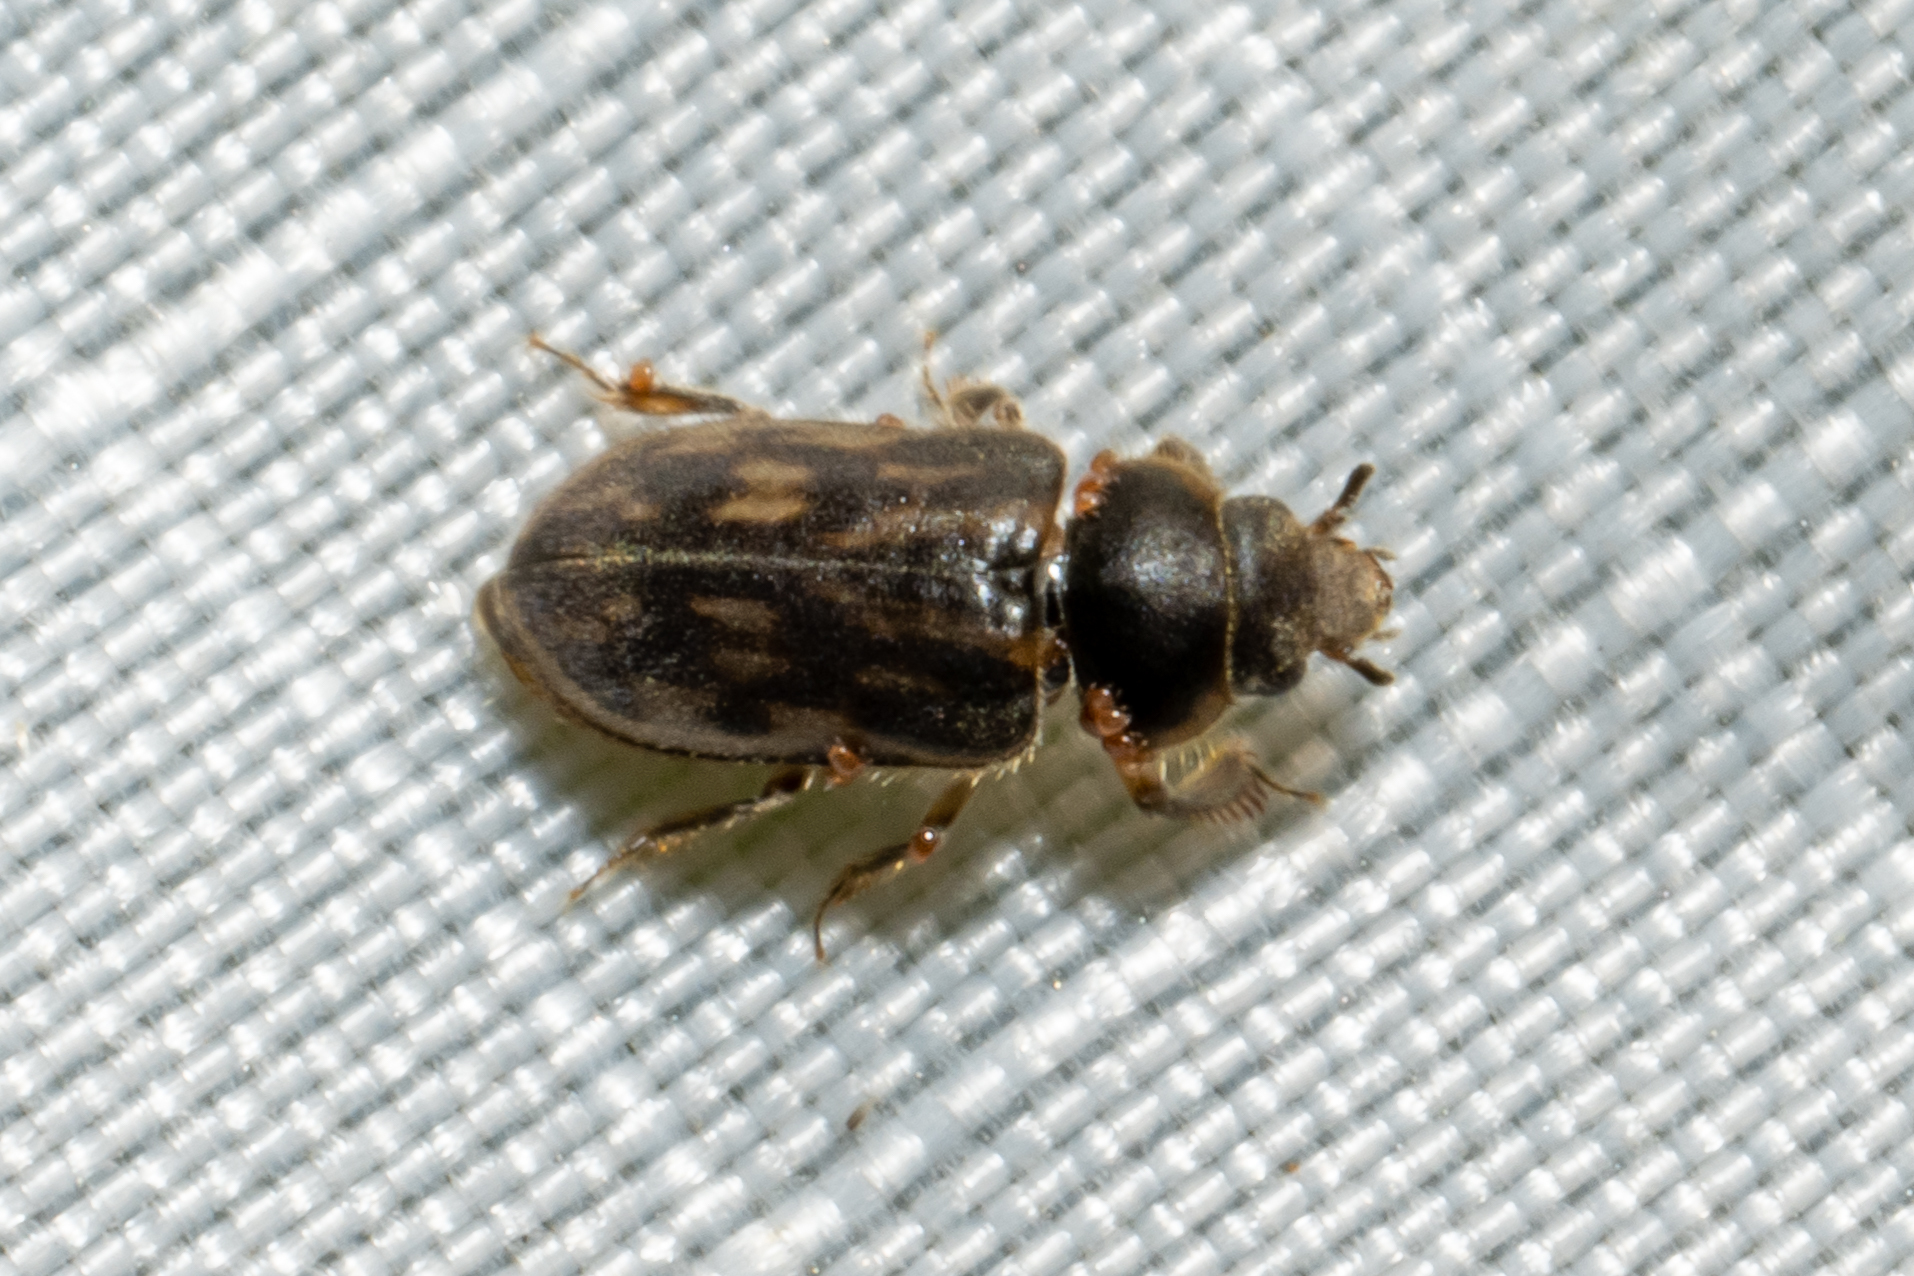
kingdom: Animalia
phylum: Arthropoda
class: Insecta
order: Coleoptera
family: Heteroceridae
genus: Heterocerus
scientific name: Heterocerus fenestratus
